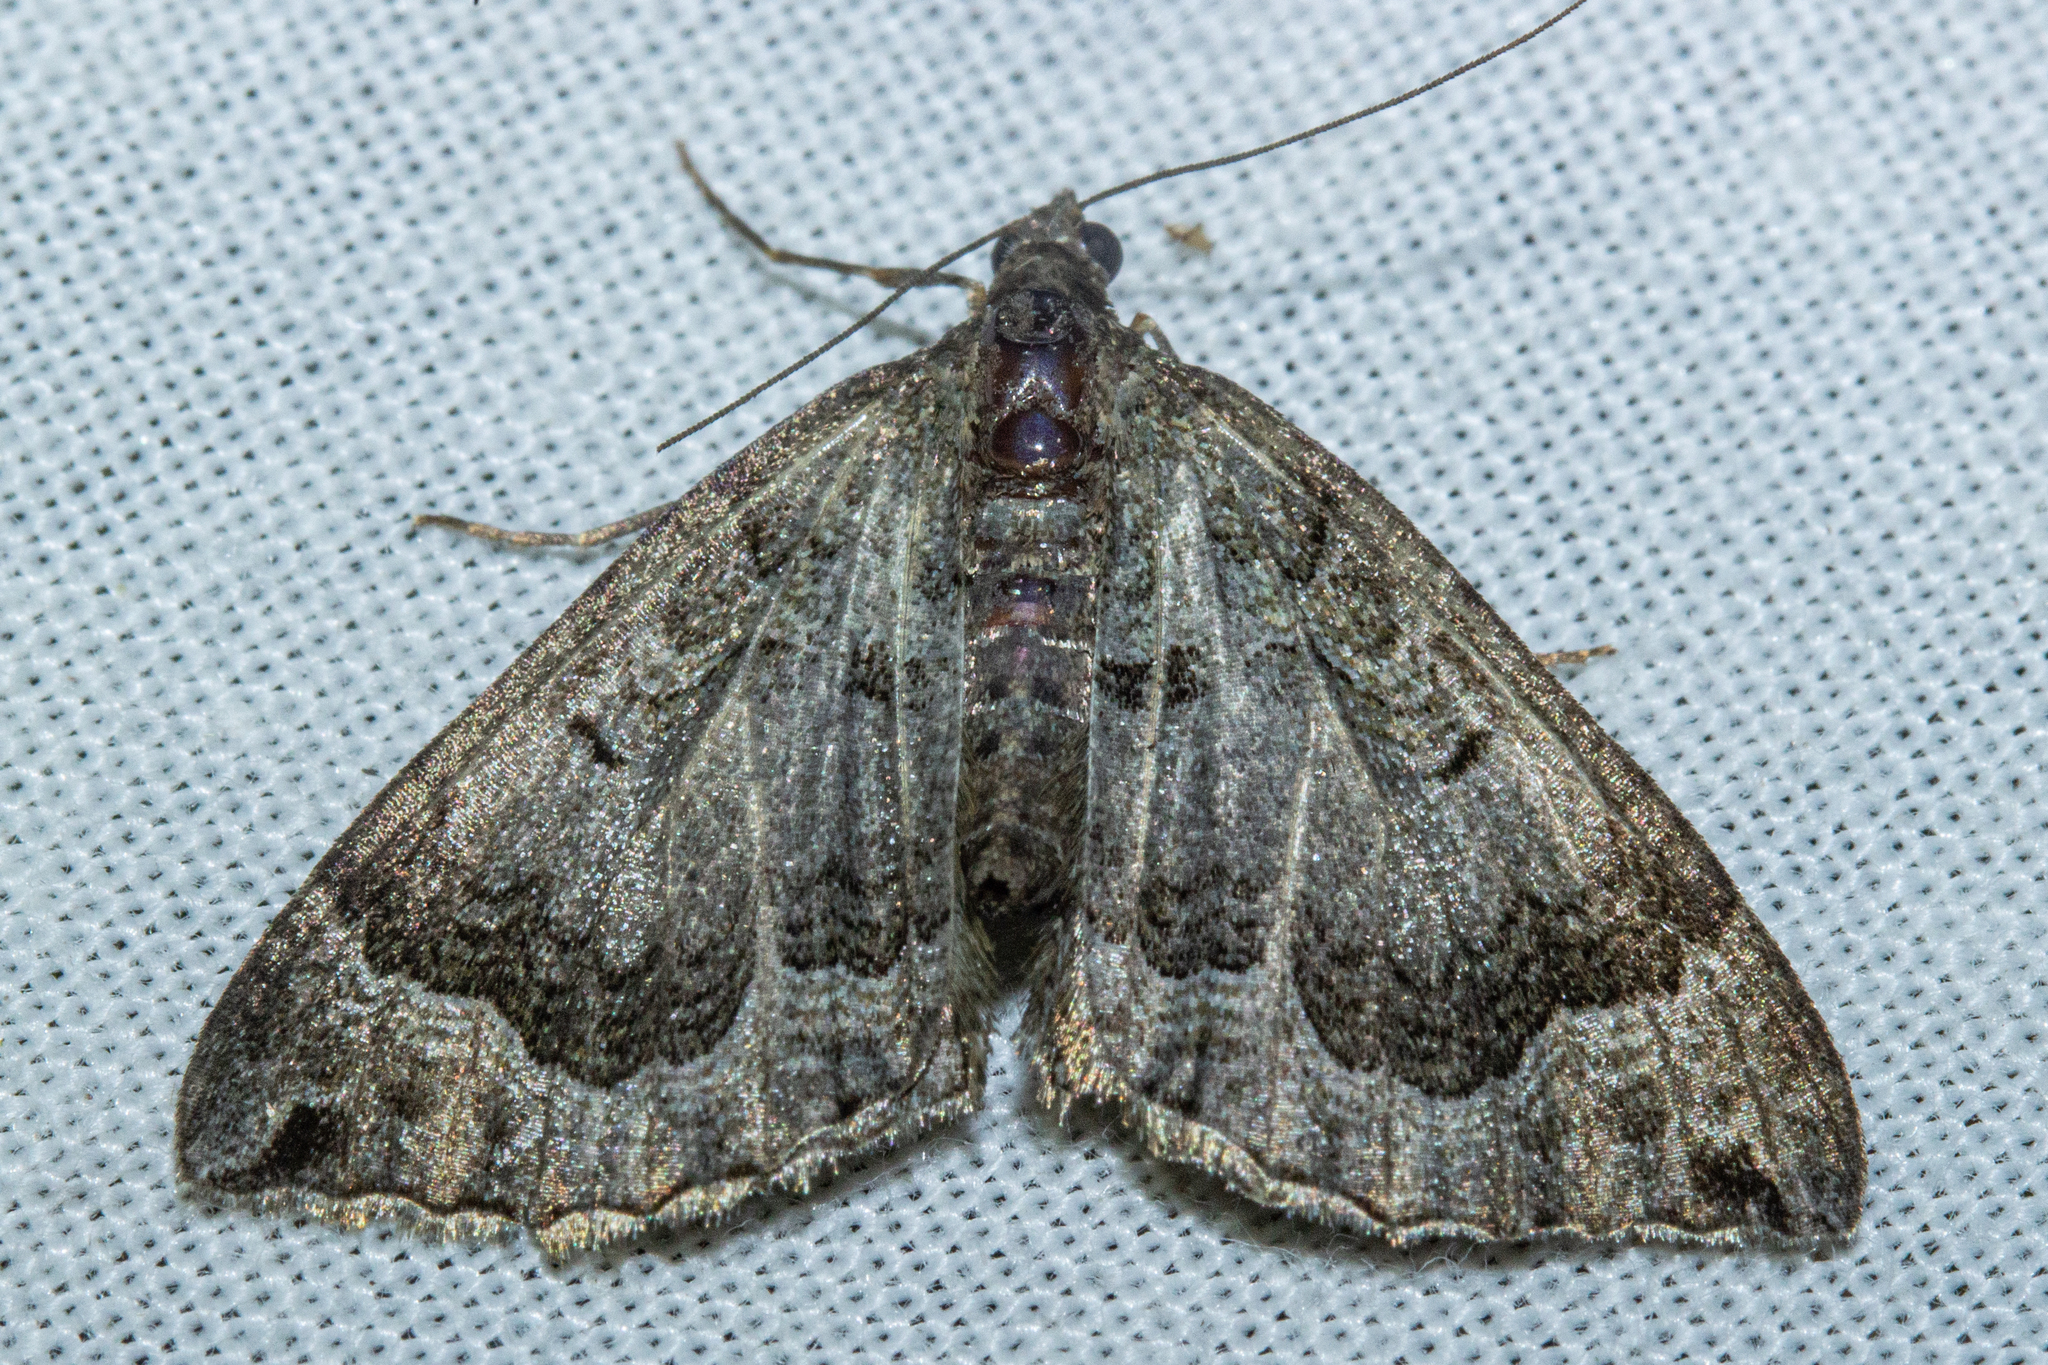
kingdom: Animalia
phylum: Arthropoda
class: Insecta
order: Lepidoptera
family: Geometridae
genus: Hydriomena
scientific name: Hydriomena rixata
